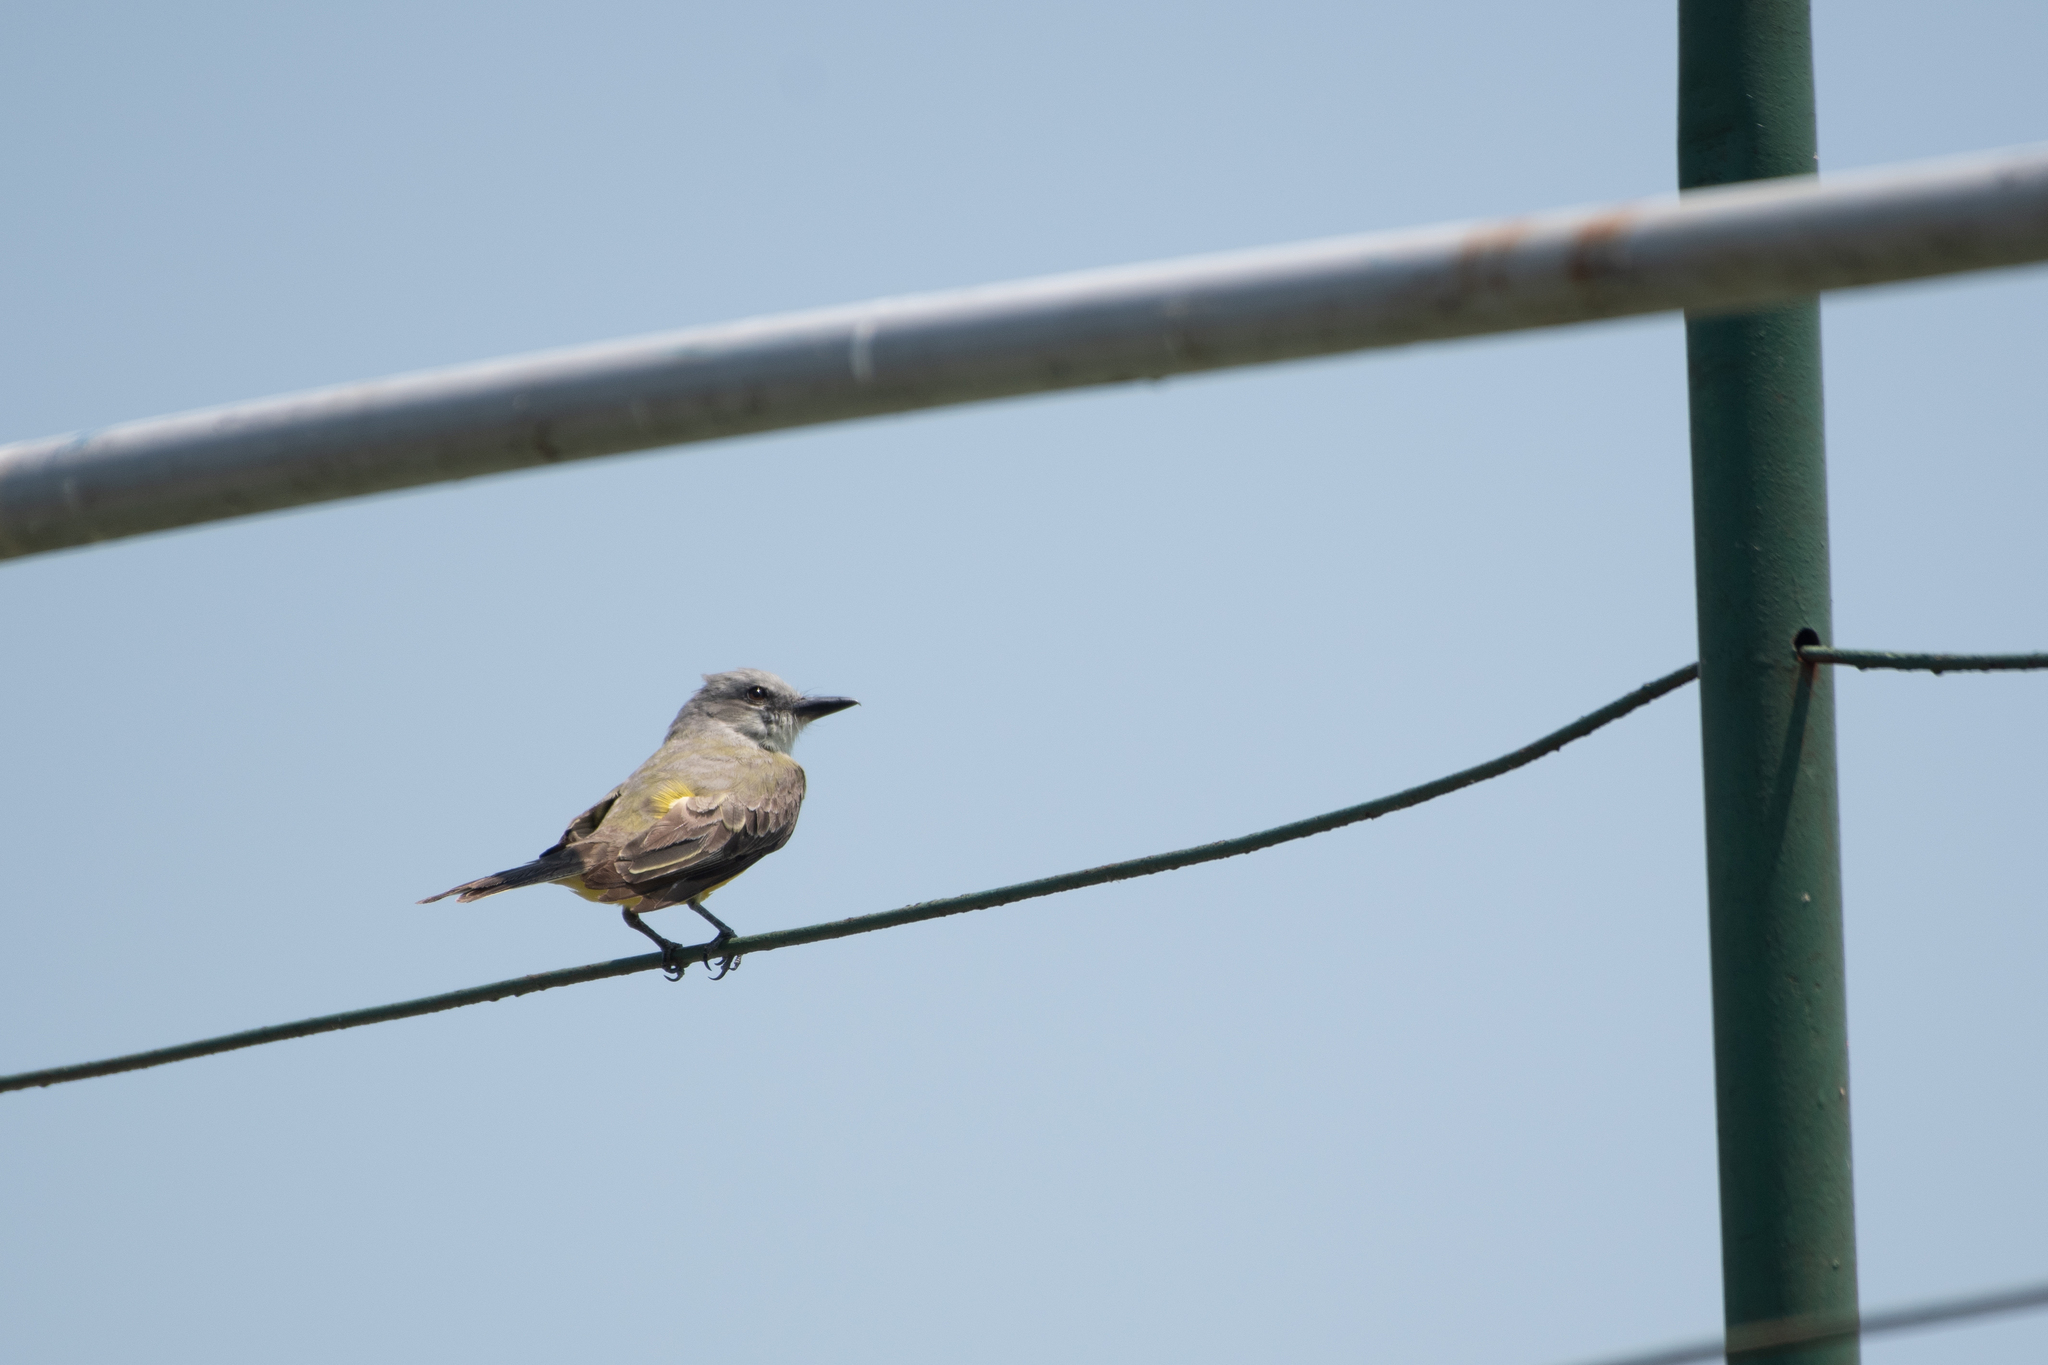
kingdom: Animalia
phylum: Chordata
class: Aves
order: Passeriformes
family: Tyrannidae
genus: Tyrannus
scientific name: Tyrannus melancholicus
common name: Tropical kingbird
